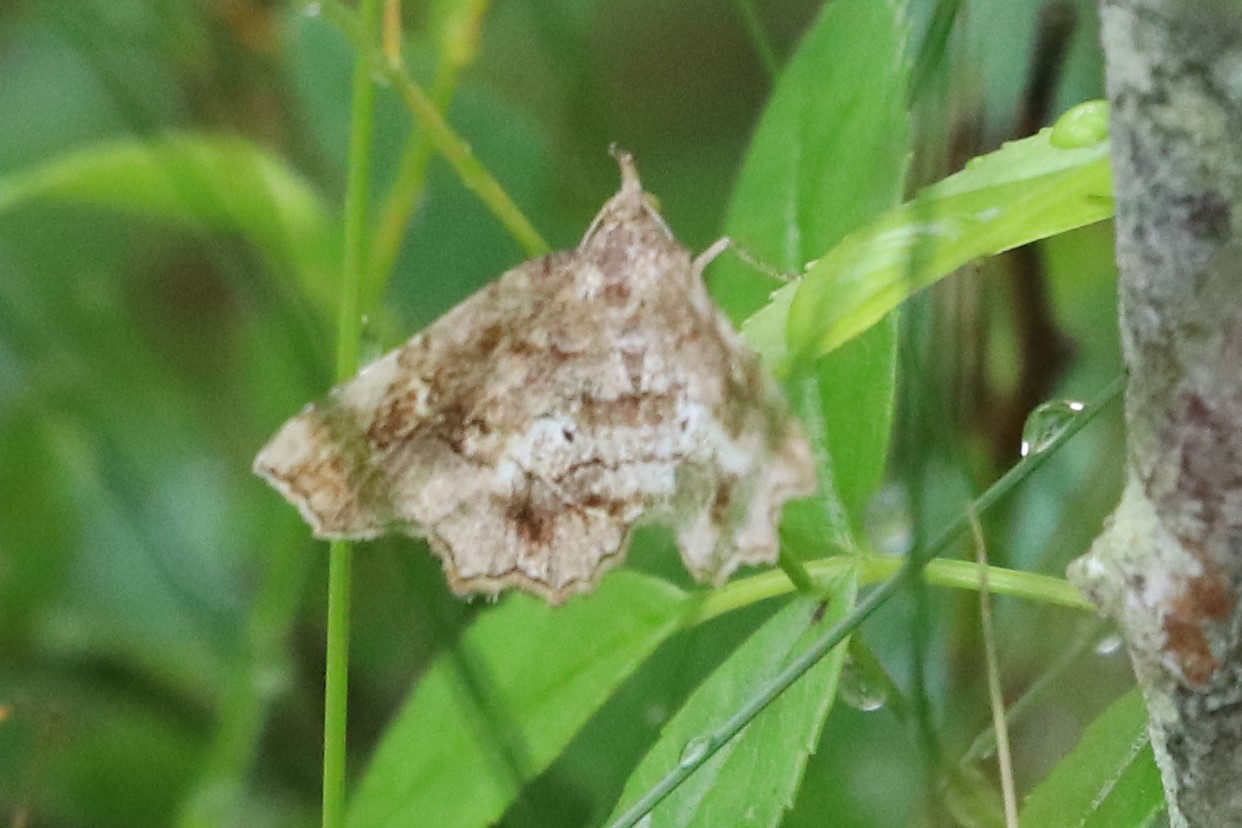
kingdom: Animalia
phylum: Arthropoda
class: Insecta
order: Lepidoptera
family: Erebidae
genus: Pangrapta
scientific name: Pangrapta decoralis
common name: Decorated owlet
